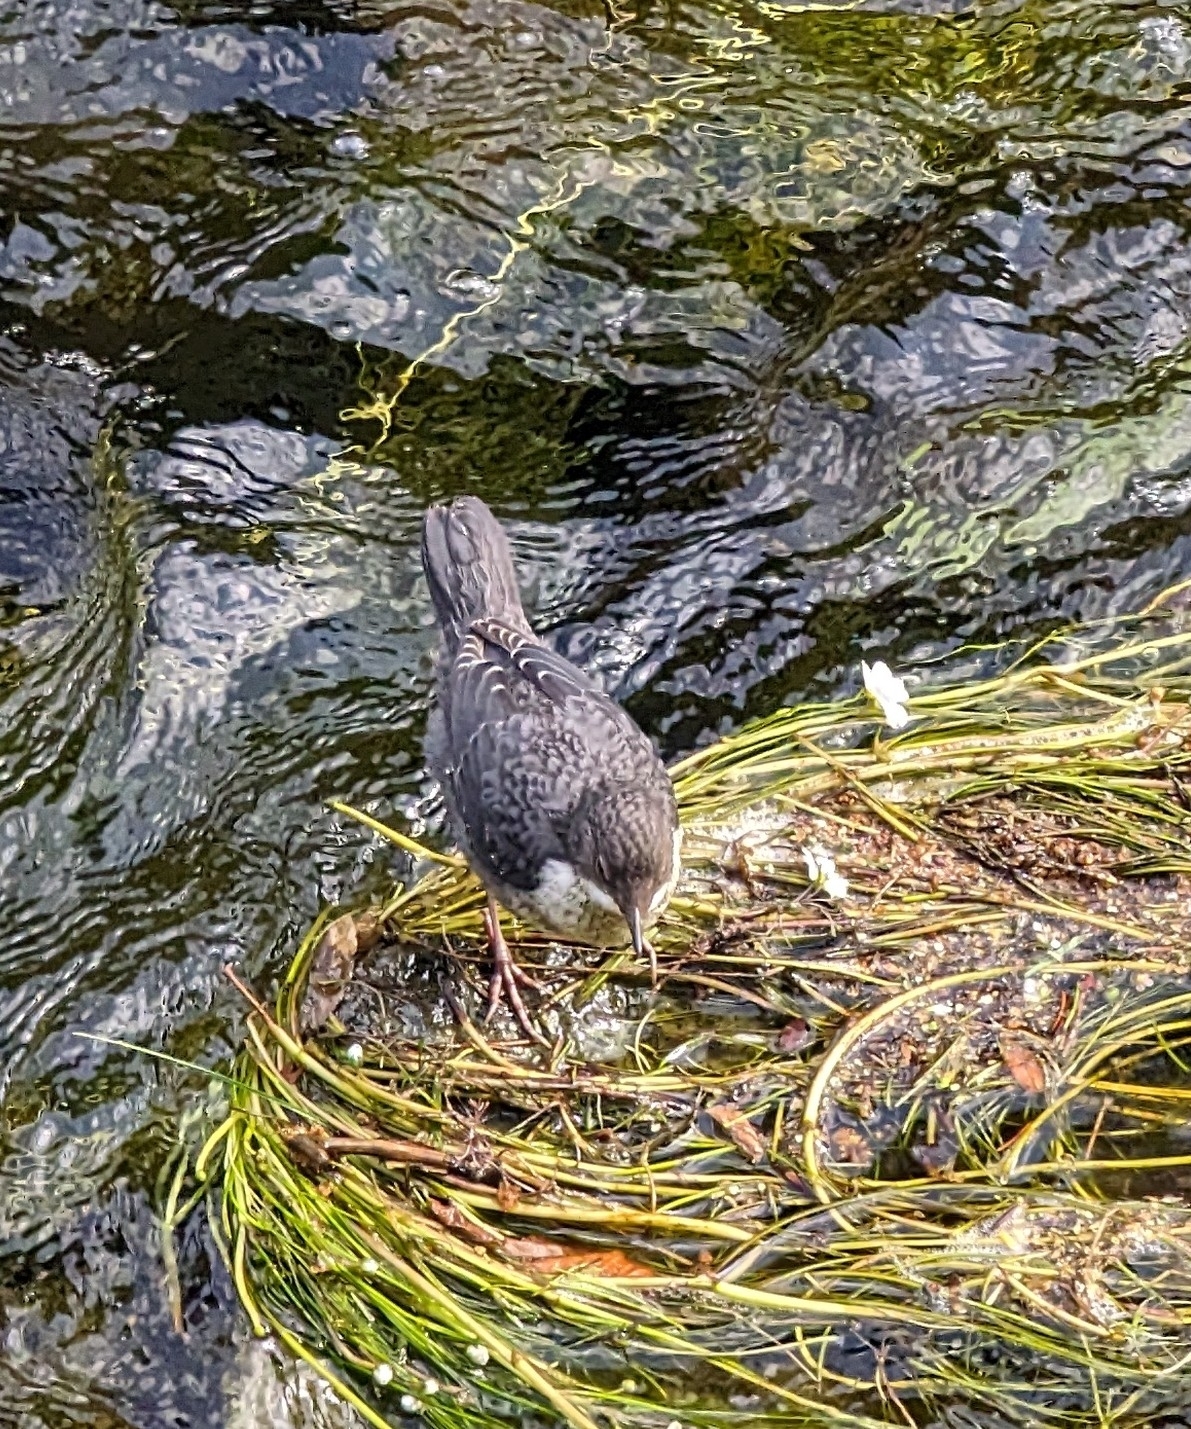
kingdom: Animalia
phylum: Chordata
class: Aves
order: Passeriformes
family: Cinclidae
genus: Cinclus
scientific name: Cinclus cinclus
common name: White-throated dipper
